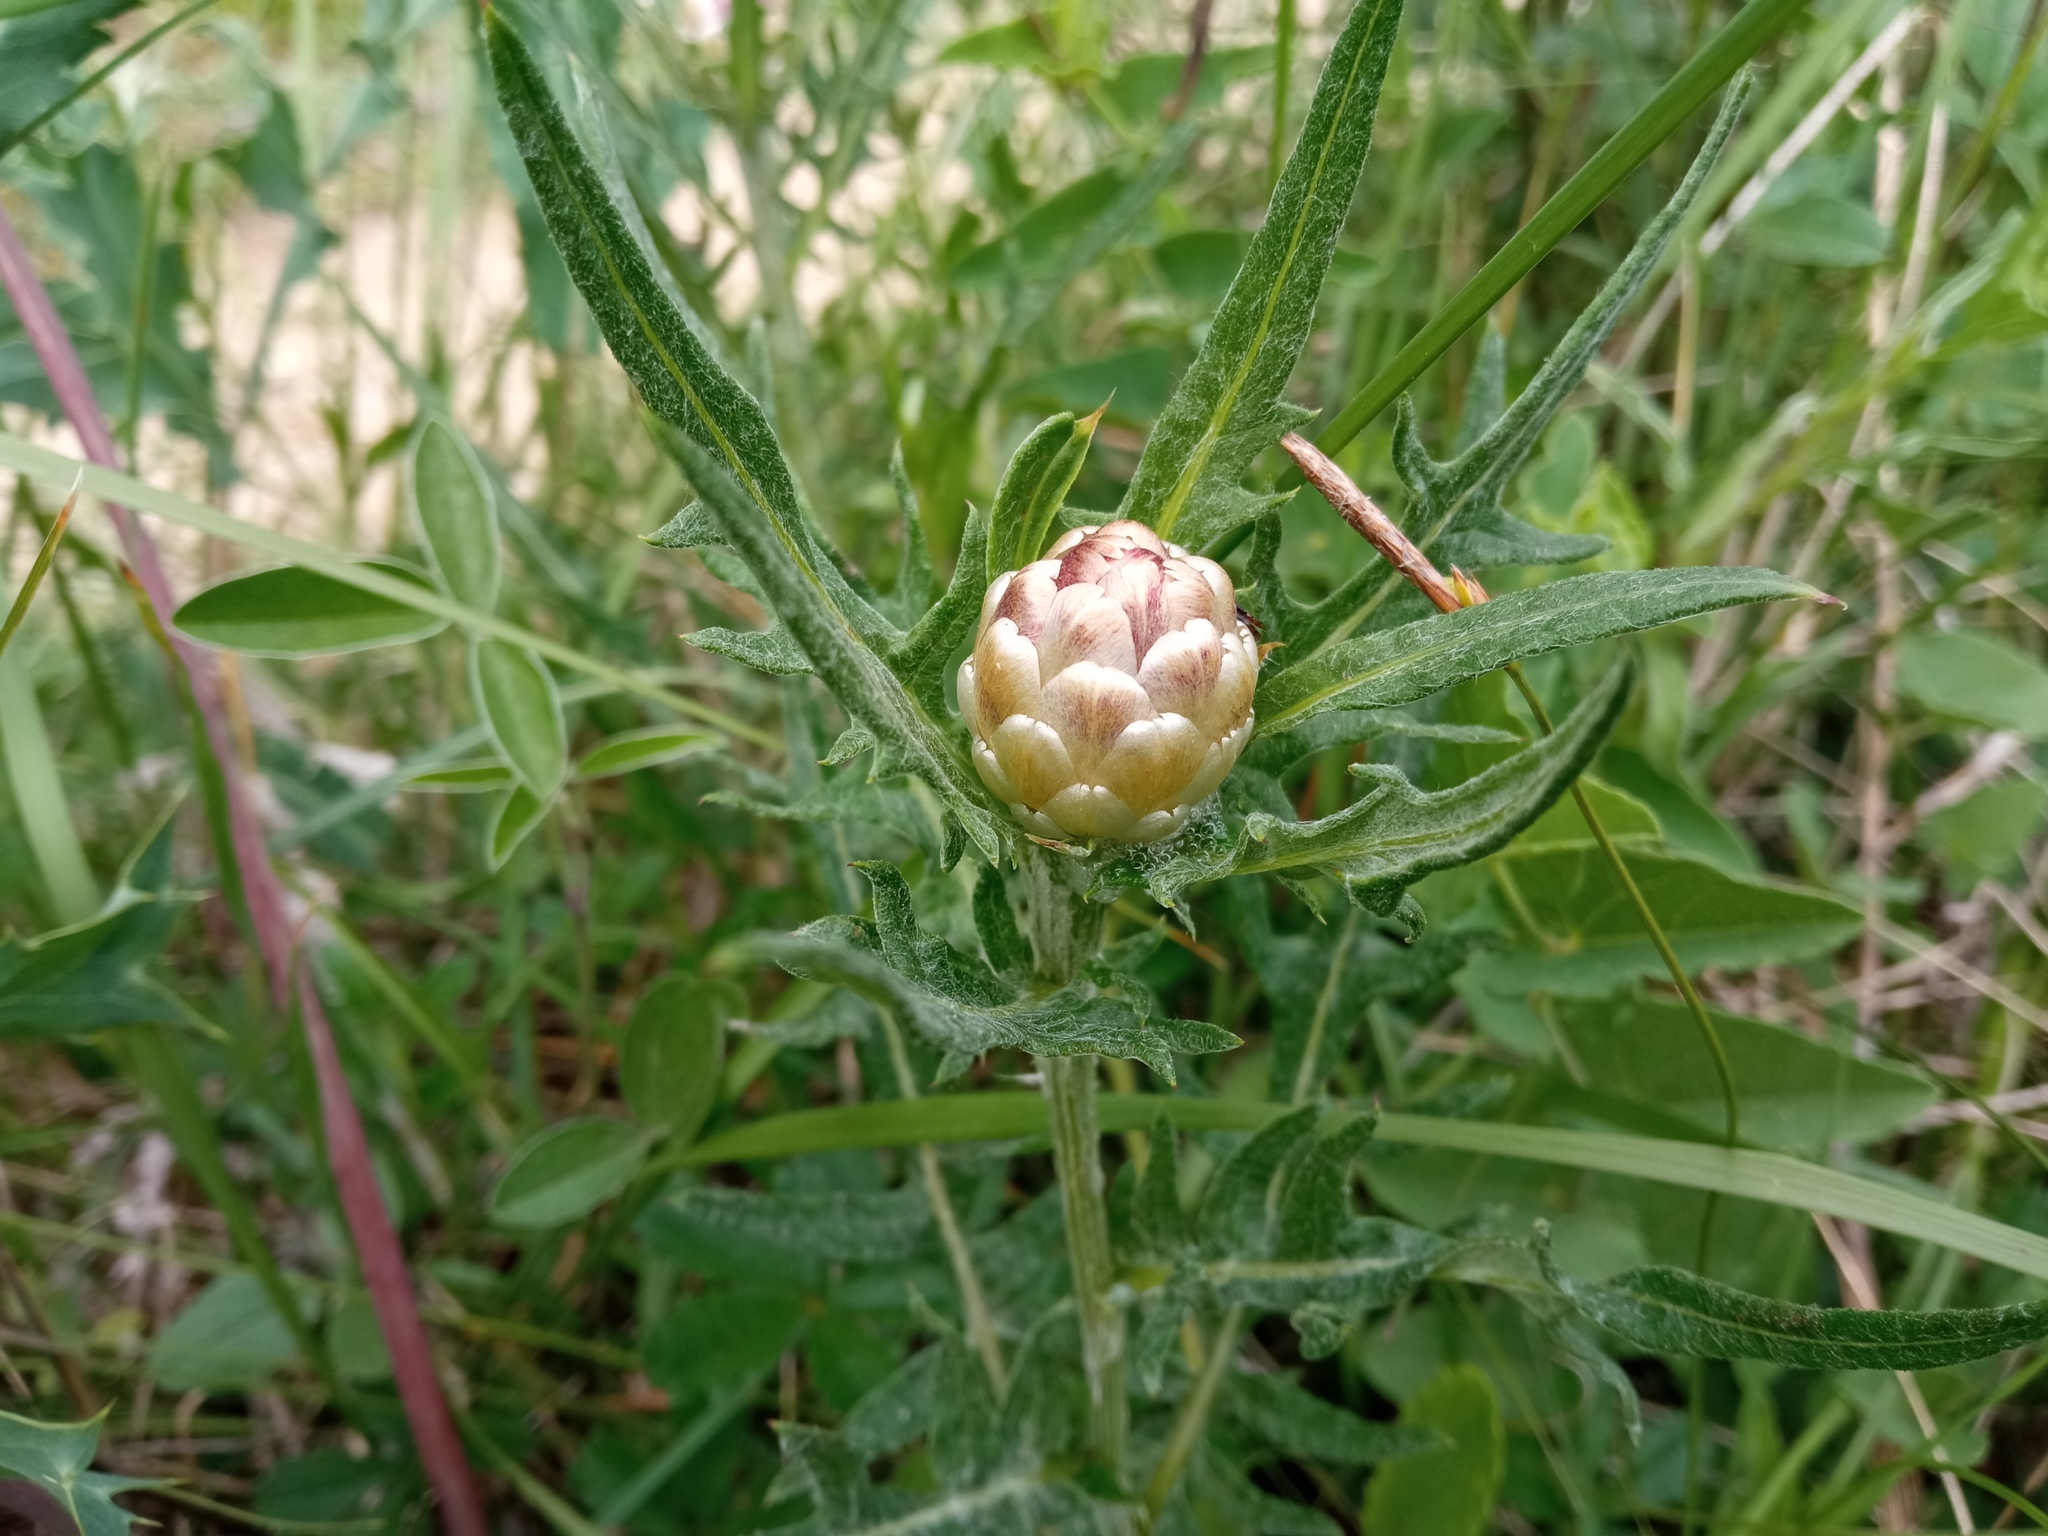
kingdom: Plantae
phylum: Tracheophyta
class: Magnoliopsida
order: Asterales
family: Asteraceae
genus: Leuzea
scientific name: Leuzea conifera
